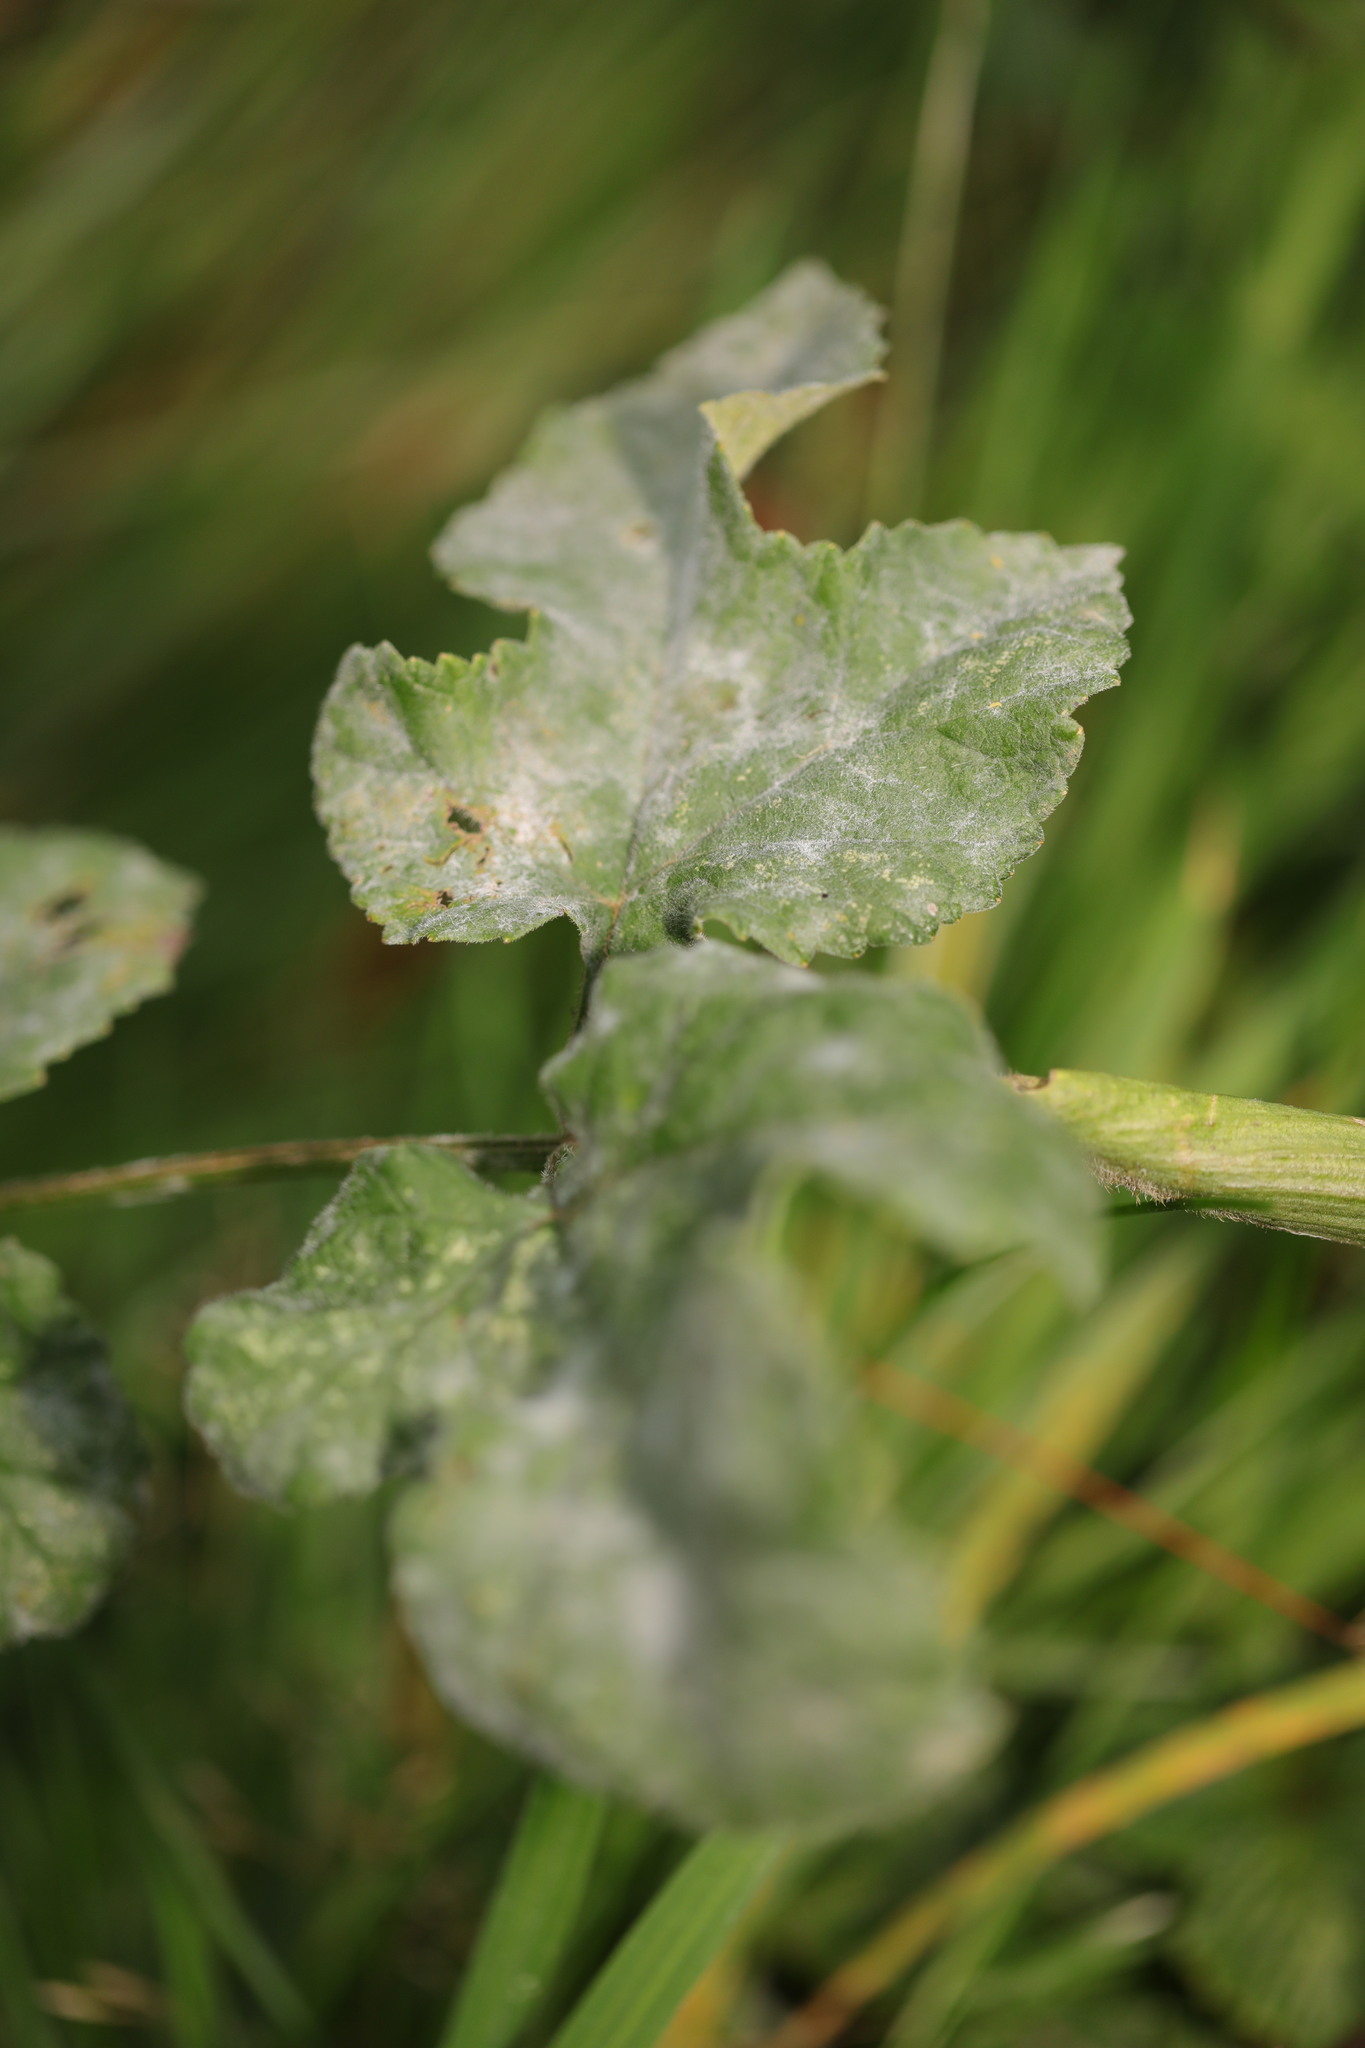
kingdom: Fungi
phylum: Ascomycota
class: Leotiomycetes
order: Helotiales
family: Erysiphaceae
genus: Erysiphe
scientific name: Erysiphe heraclei
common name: Umbellifer mildew
